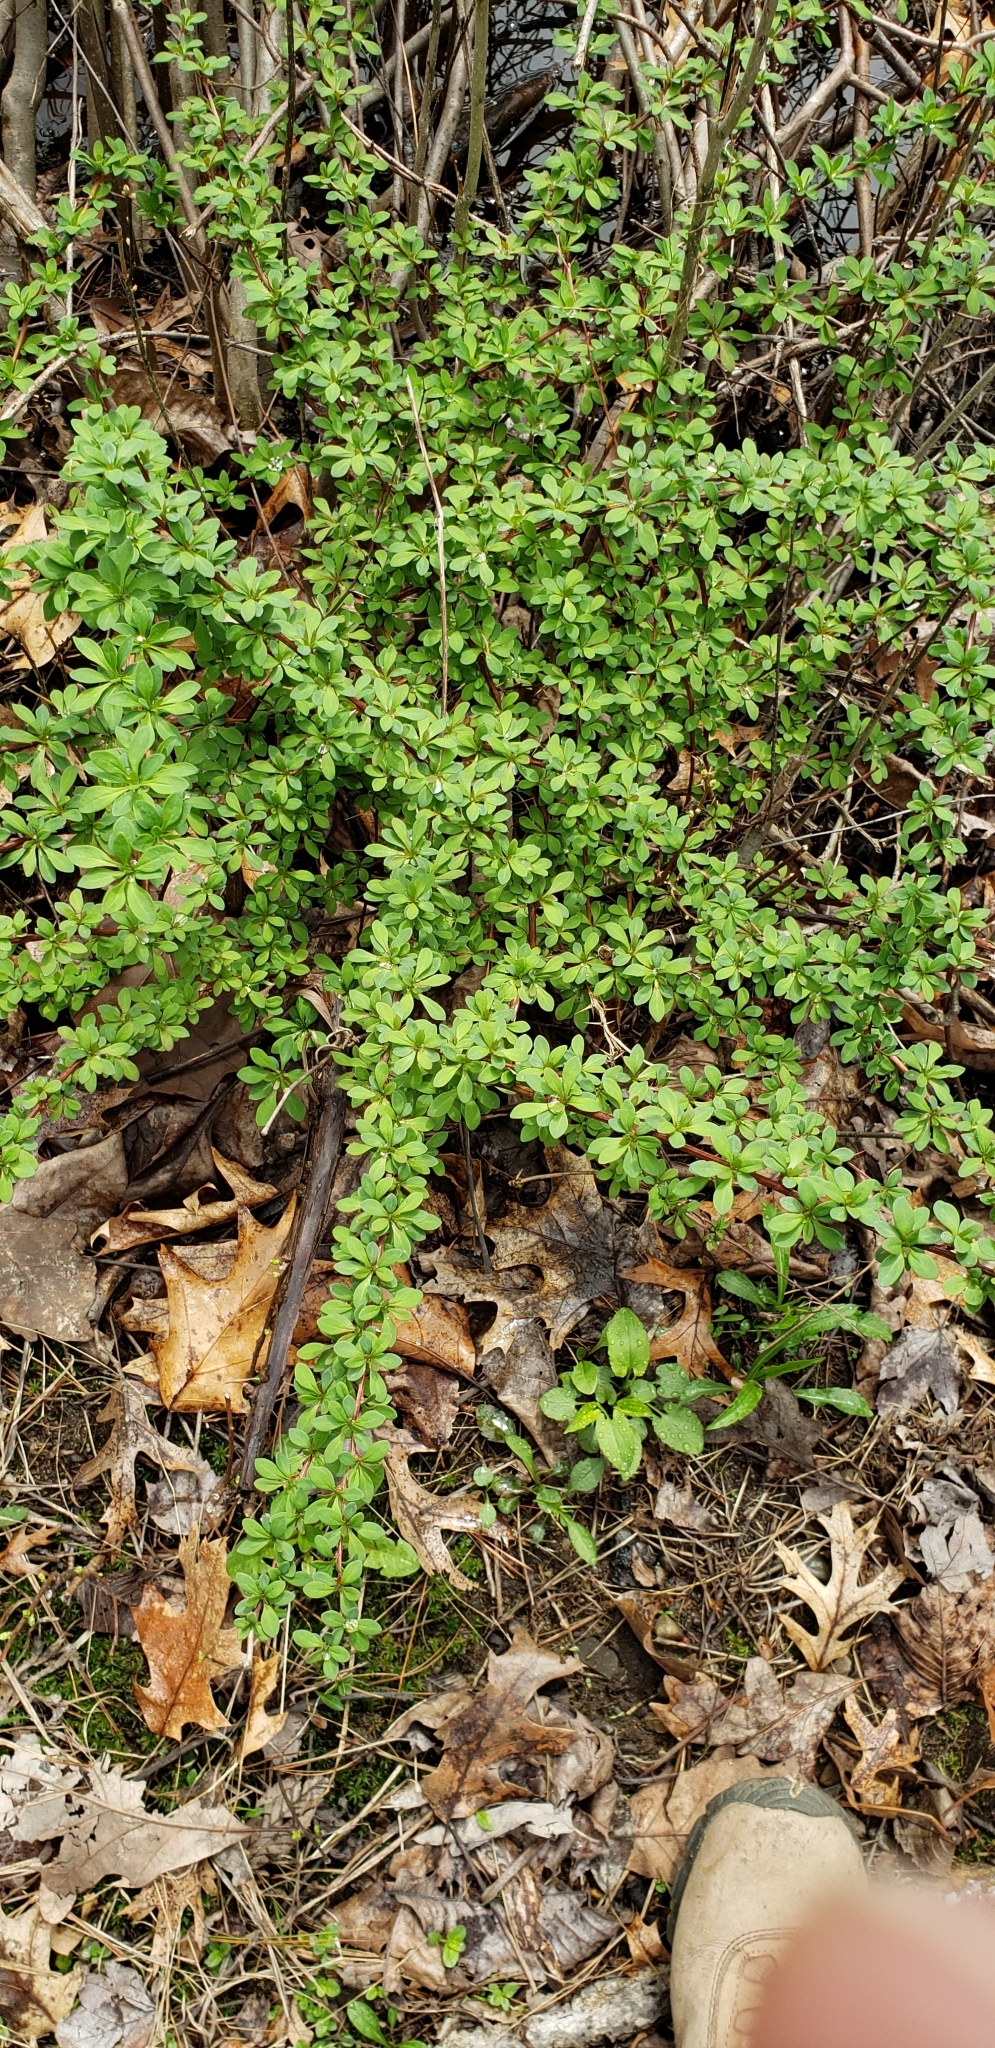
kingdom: Plantae
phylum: Tracheophyta
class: Magnoliopsida
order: Ranunculales
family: Berberidaceae
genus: Berberis
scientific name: Berberis thunbergii
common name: Japanese barberry
